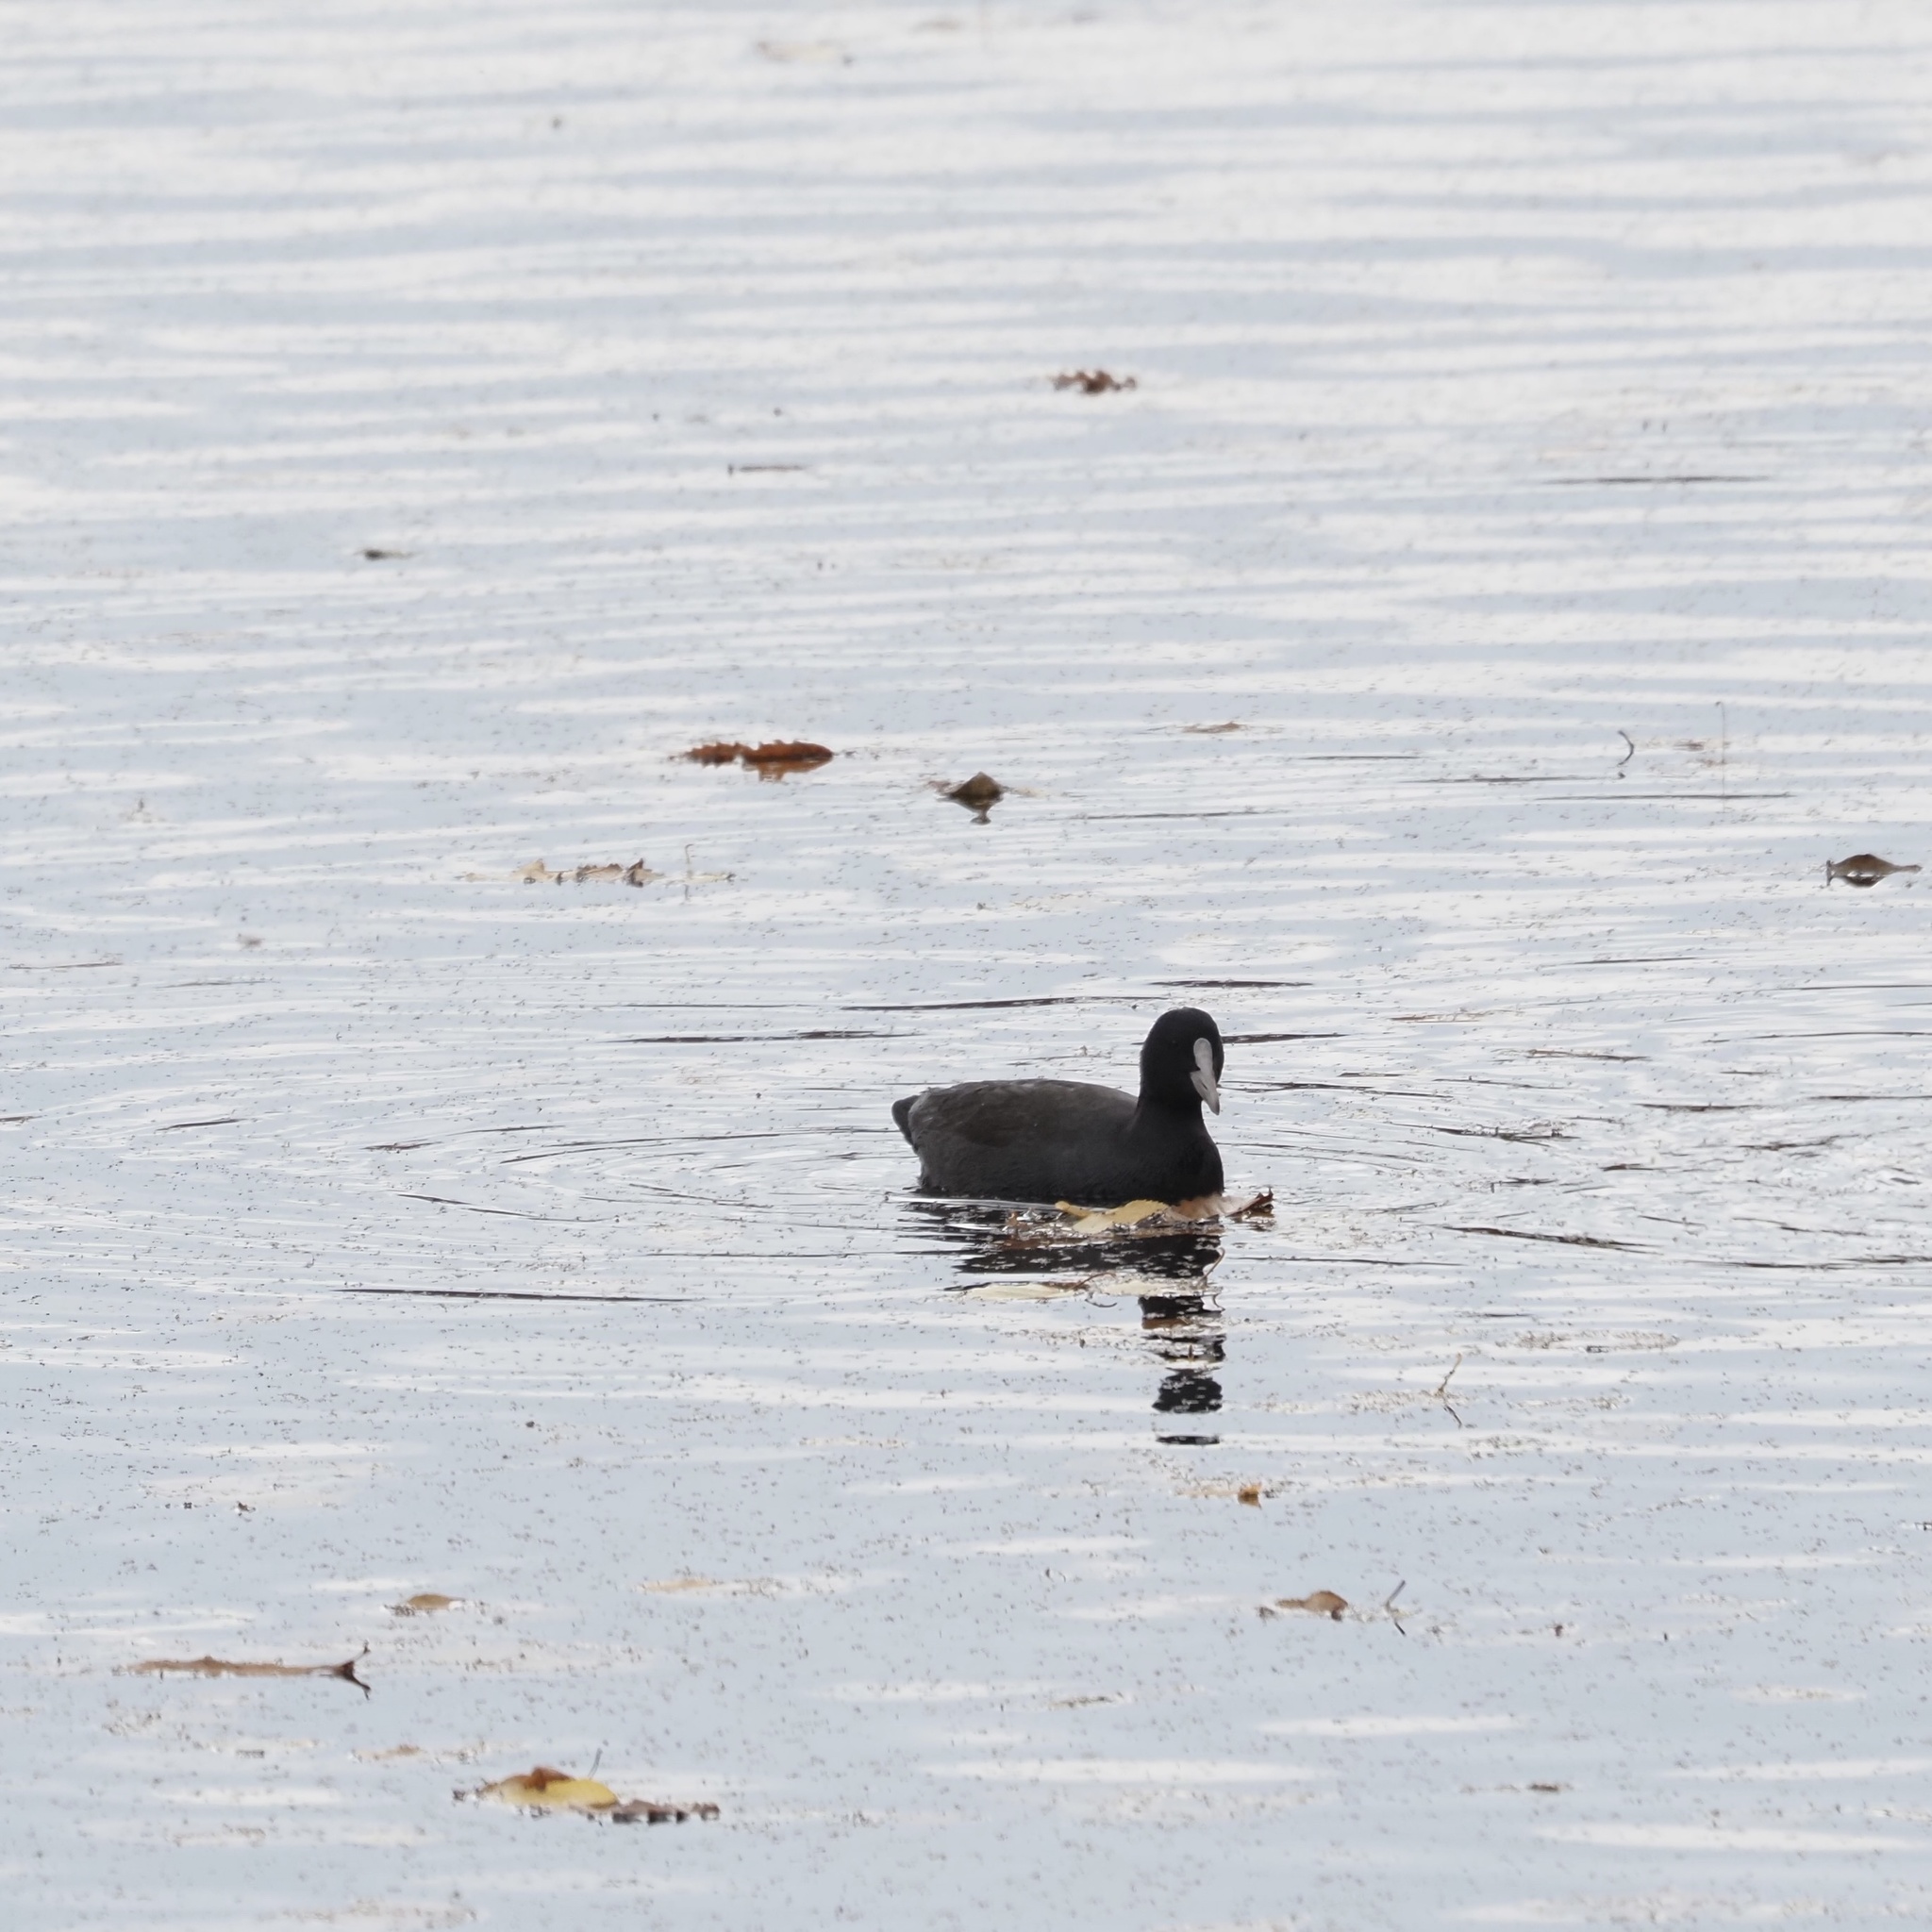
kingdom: Animalia
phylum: Chordata
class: Aves
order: Gruiformes
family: Rallidae
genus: Fulica
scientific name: Fulica atra
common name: Eurasian coot
